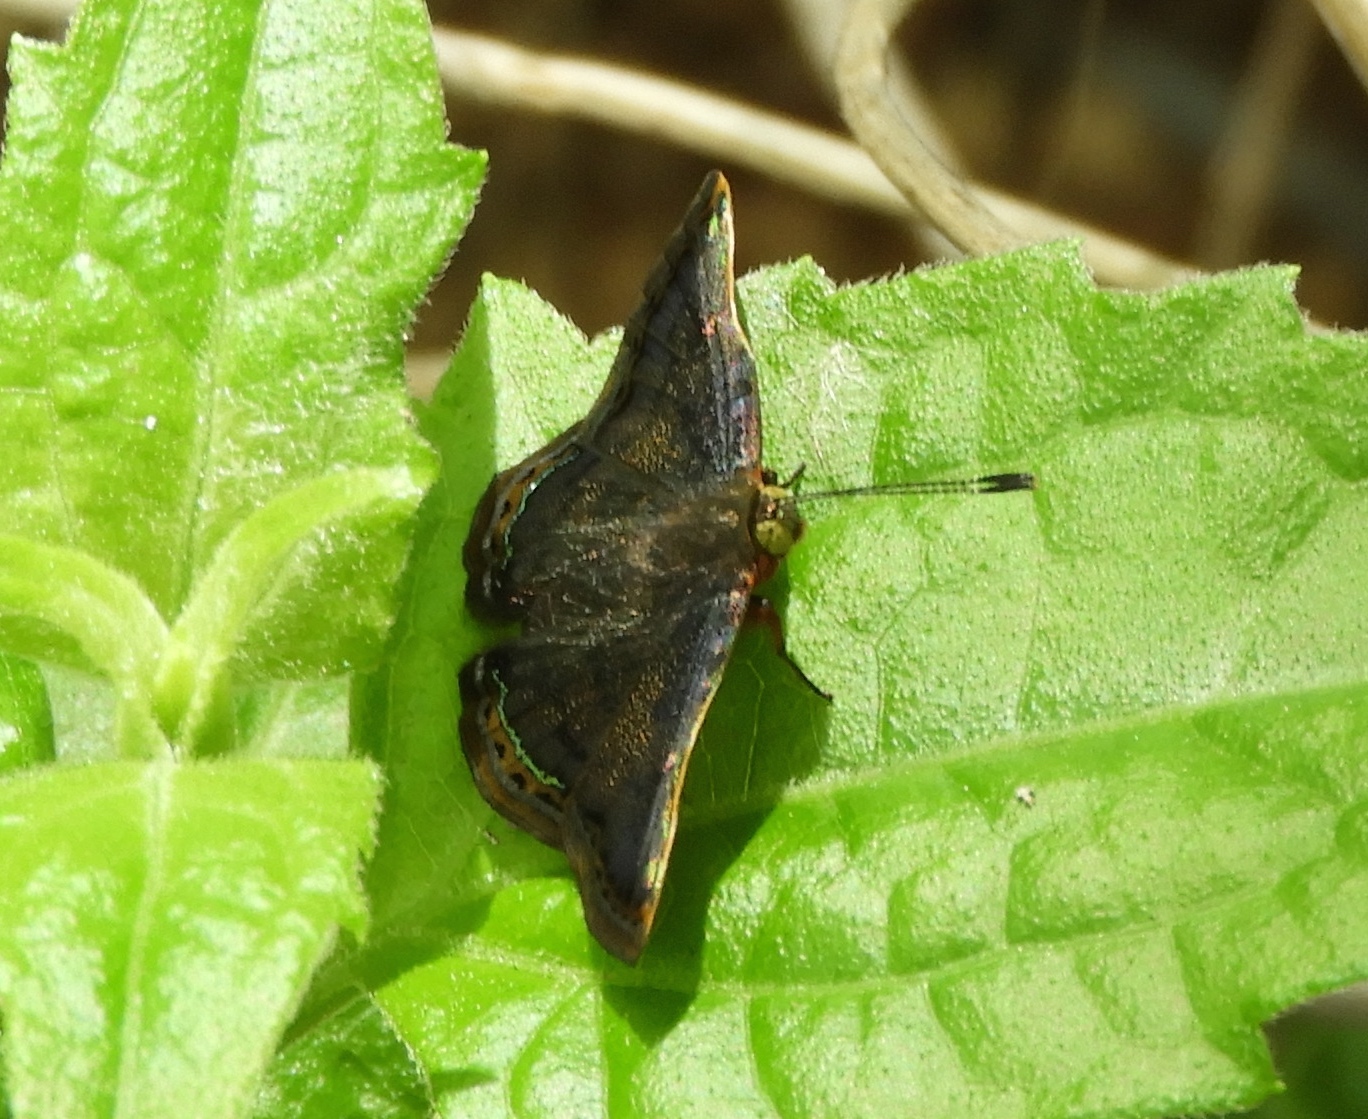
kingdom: Animalia
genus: Caria
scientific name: Caria ino
